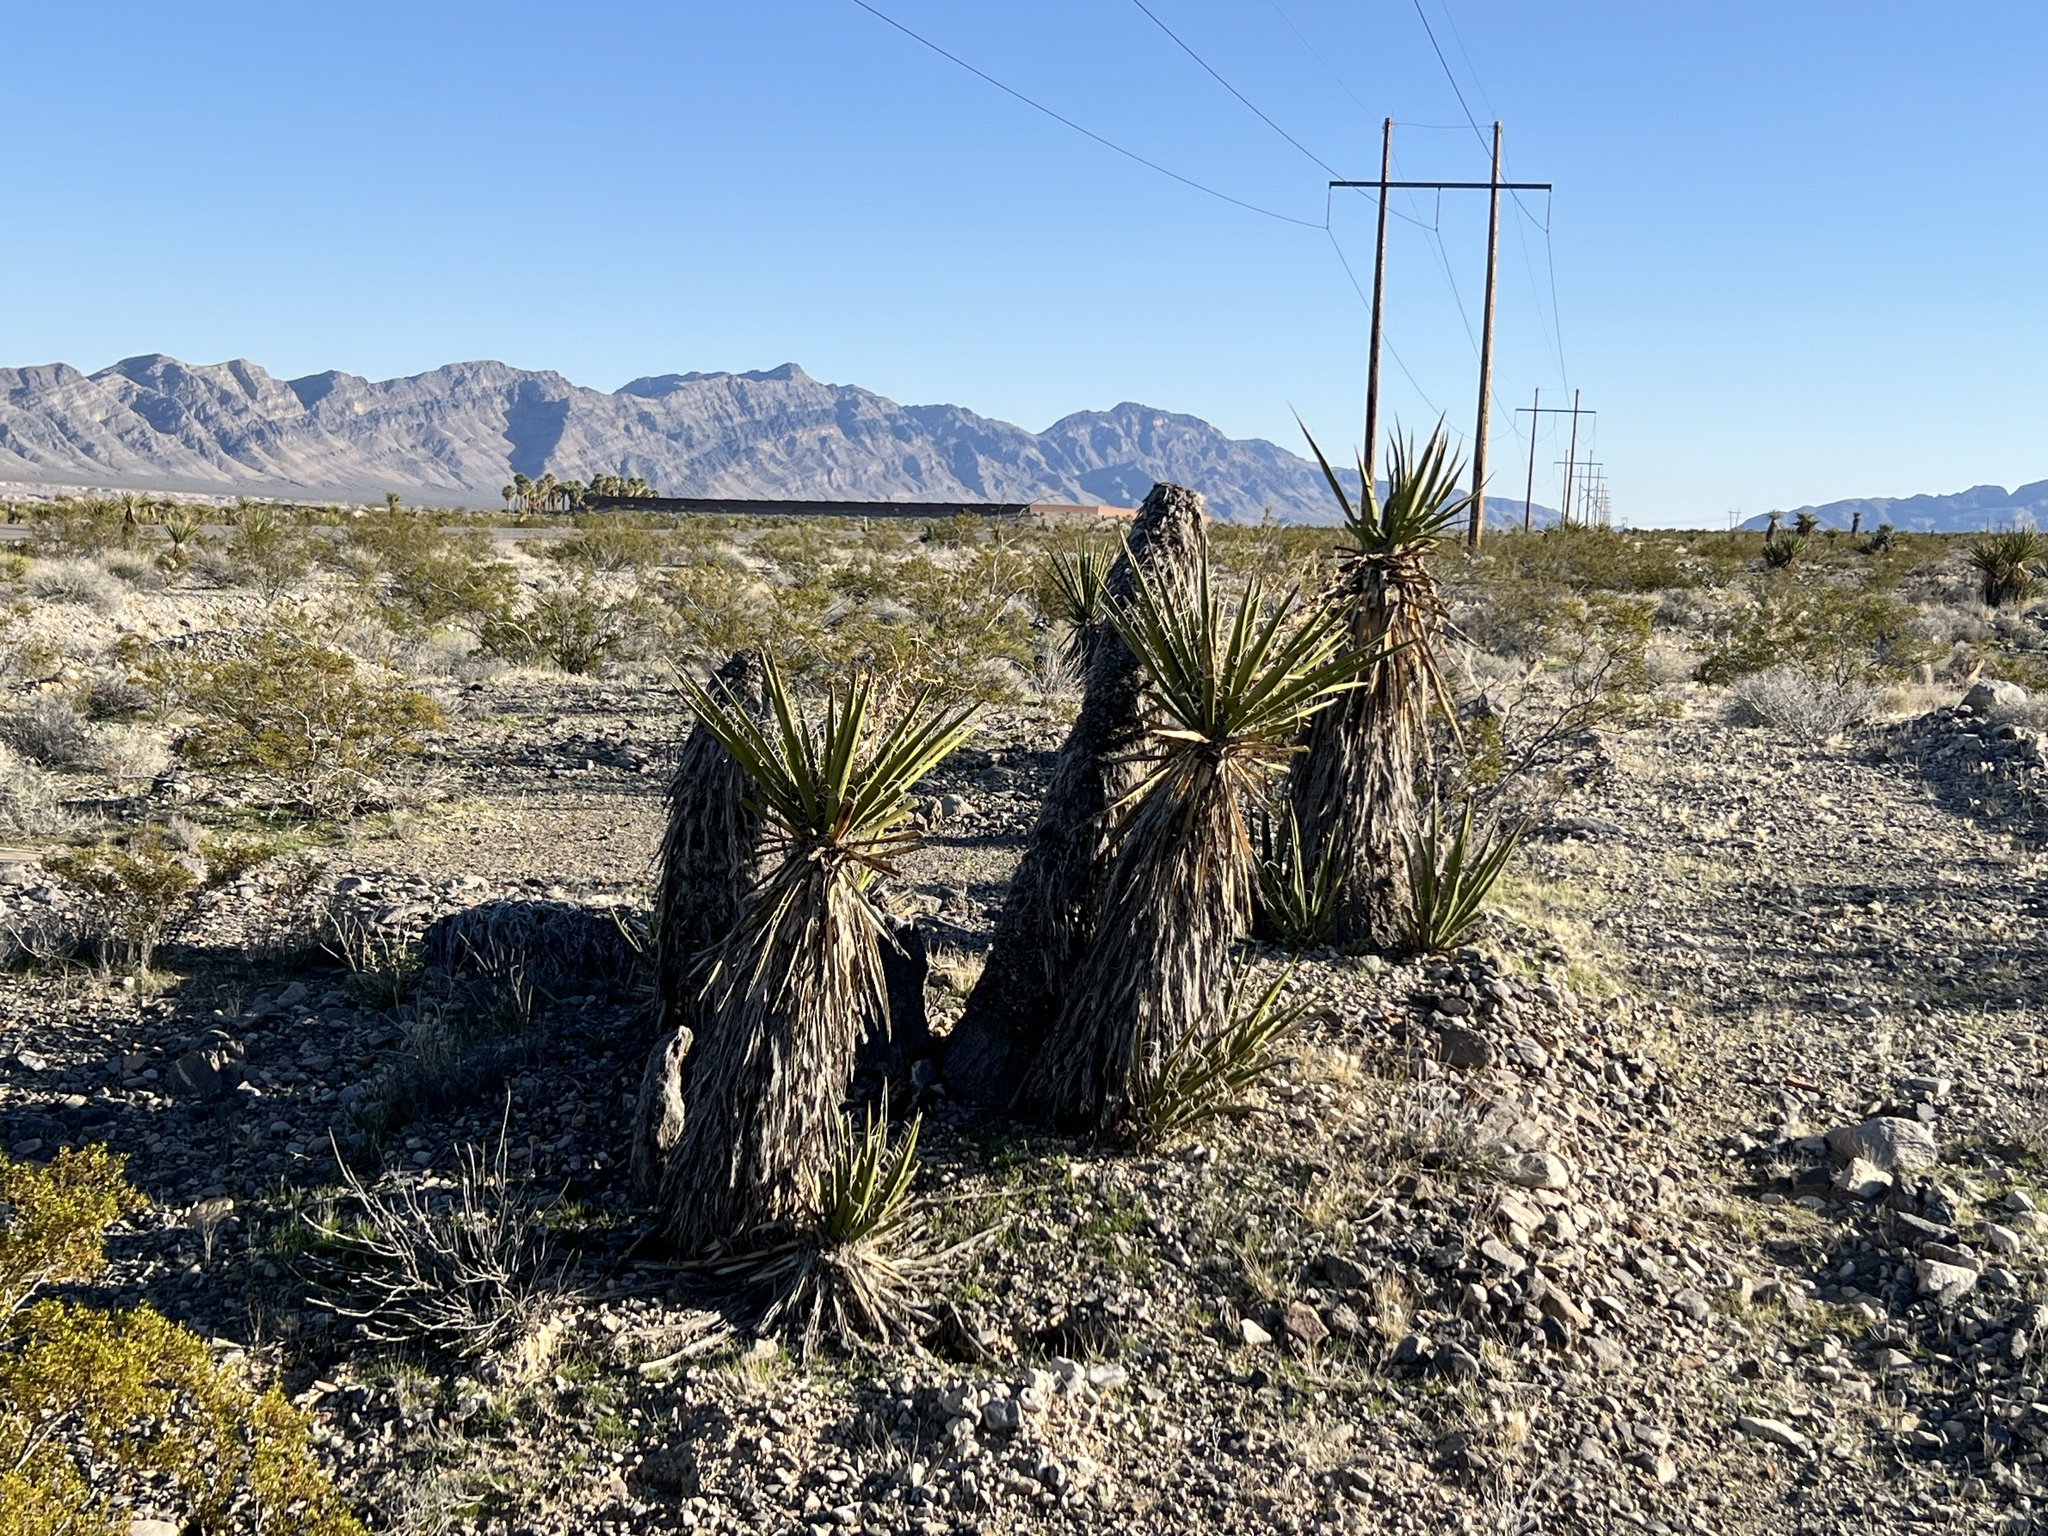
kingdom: Plantae
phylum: Tracheophyta
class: Liliopsida
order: Asparagales
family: Asparagaceae
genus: Yucca
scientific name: Yucca schidigera
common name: Mojave yucca
